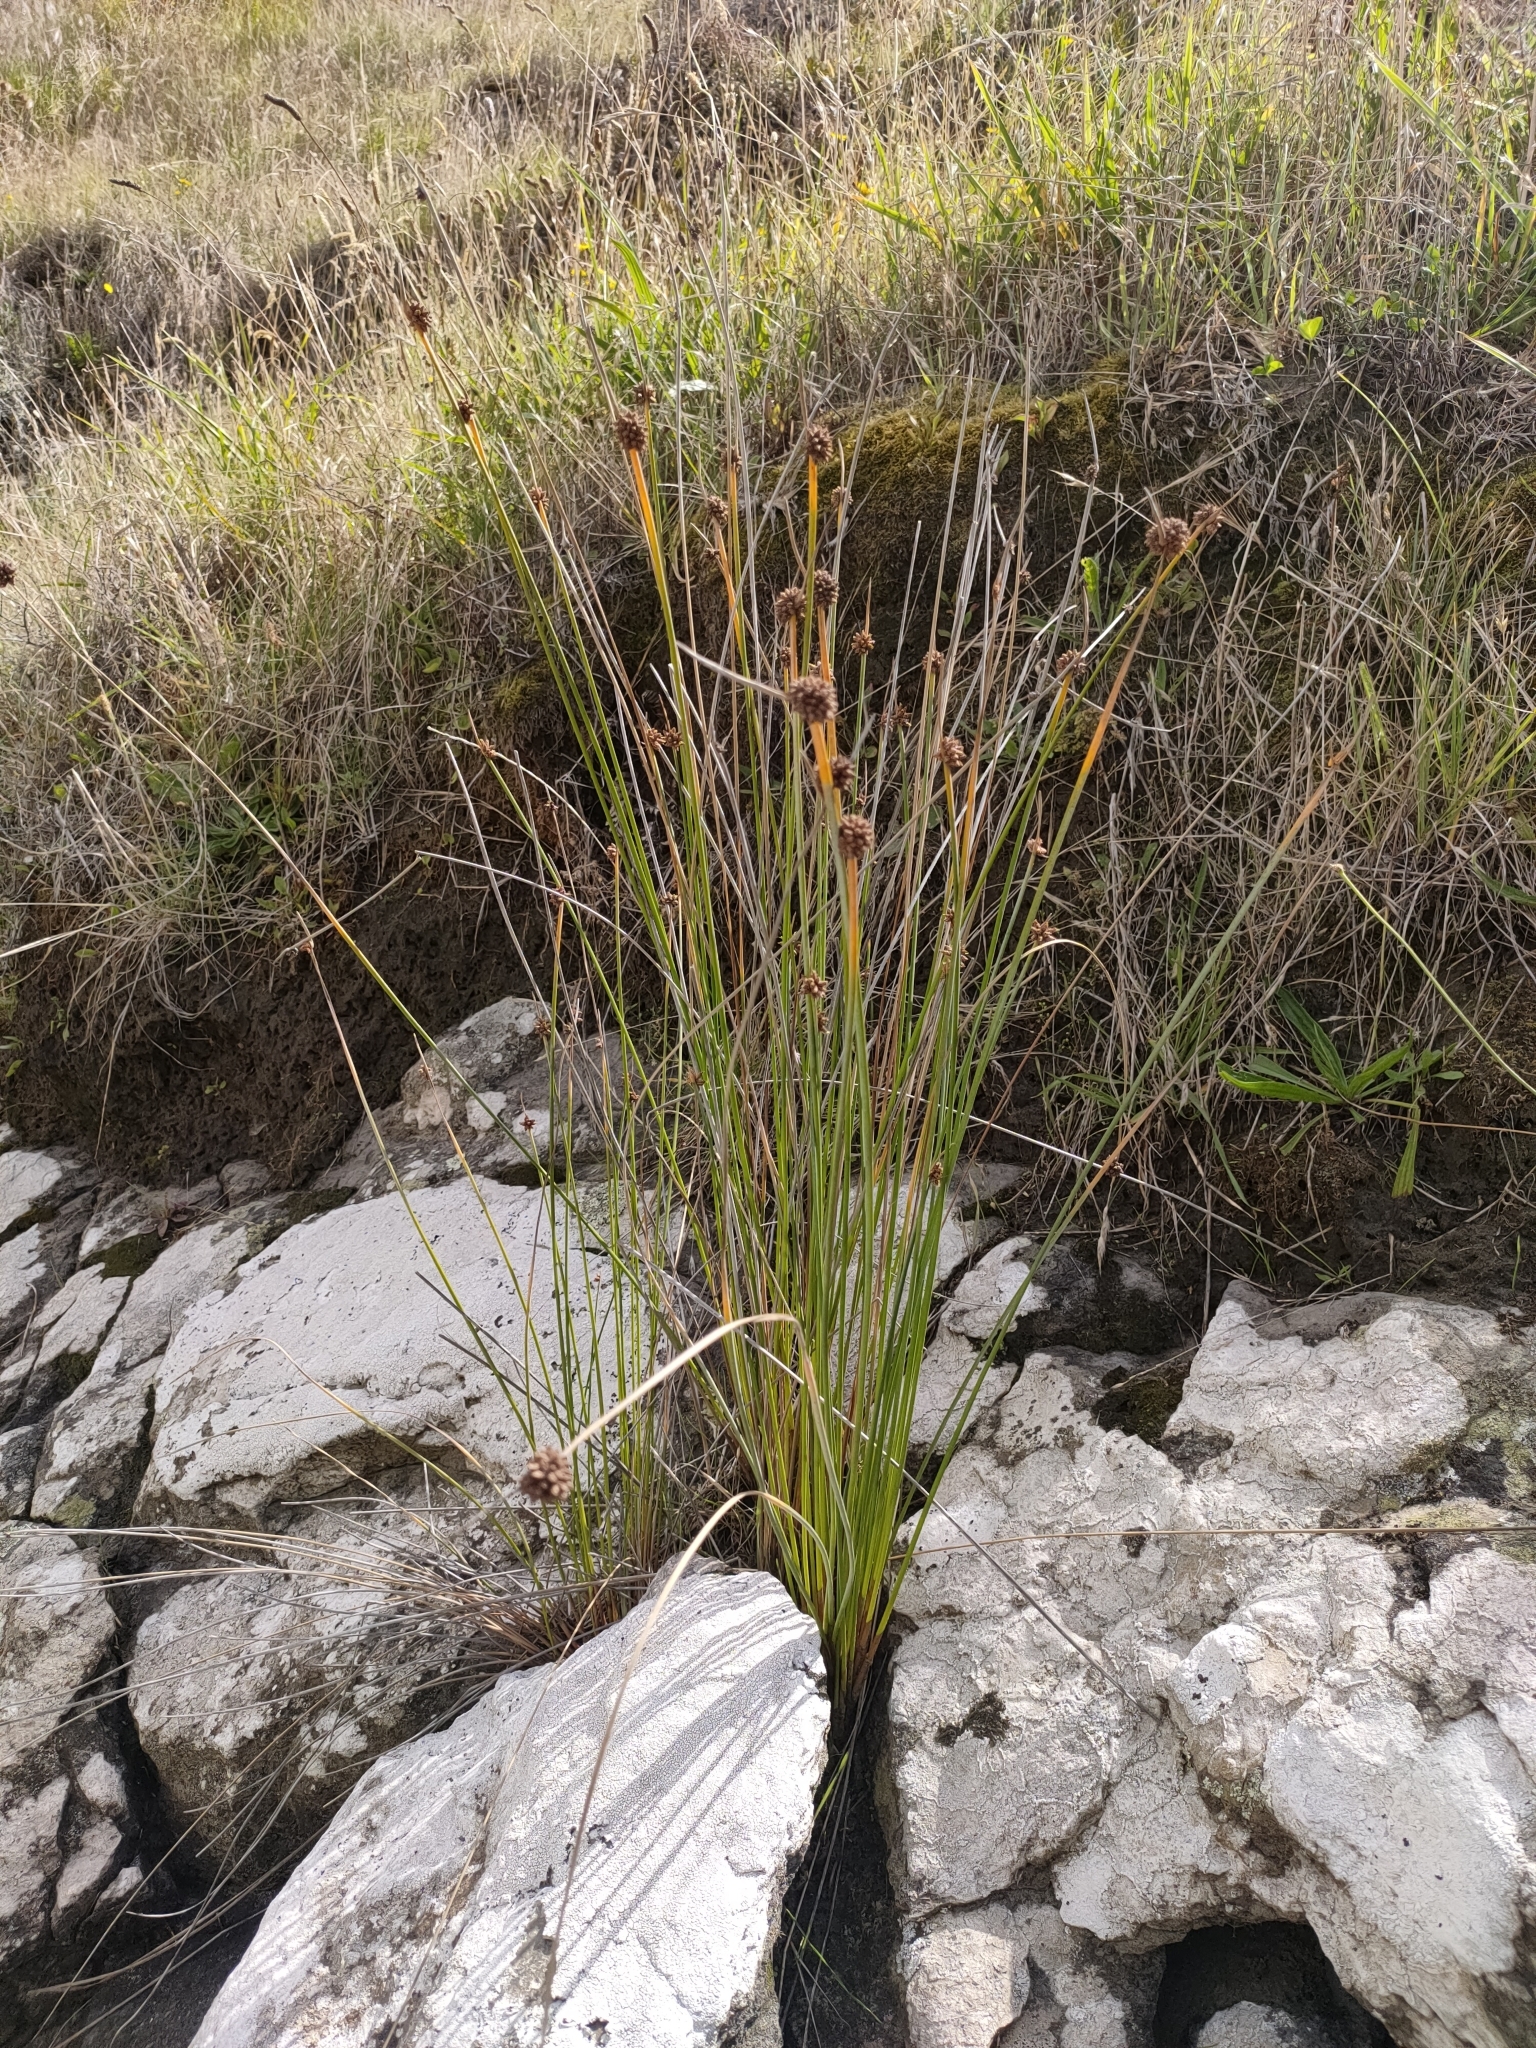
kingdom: Plantae
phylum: Tracheophyta
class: Liliopsida
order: Poales
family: Cyperaceae
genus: Ficinia
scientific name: Ficinia nodosa
